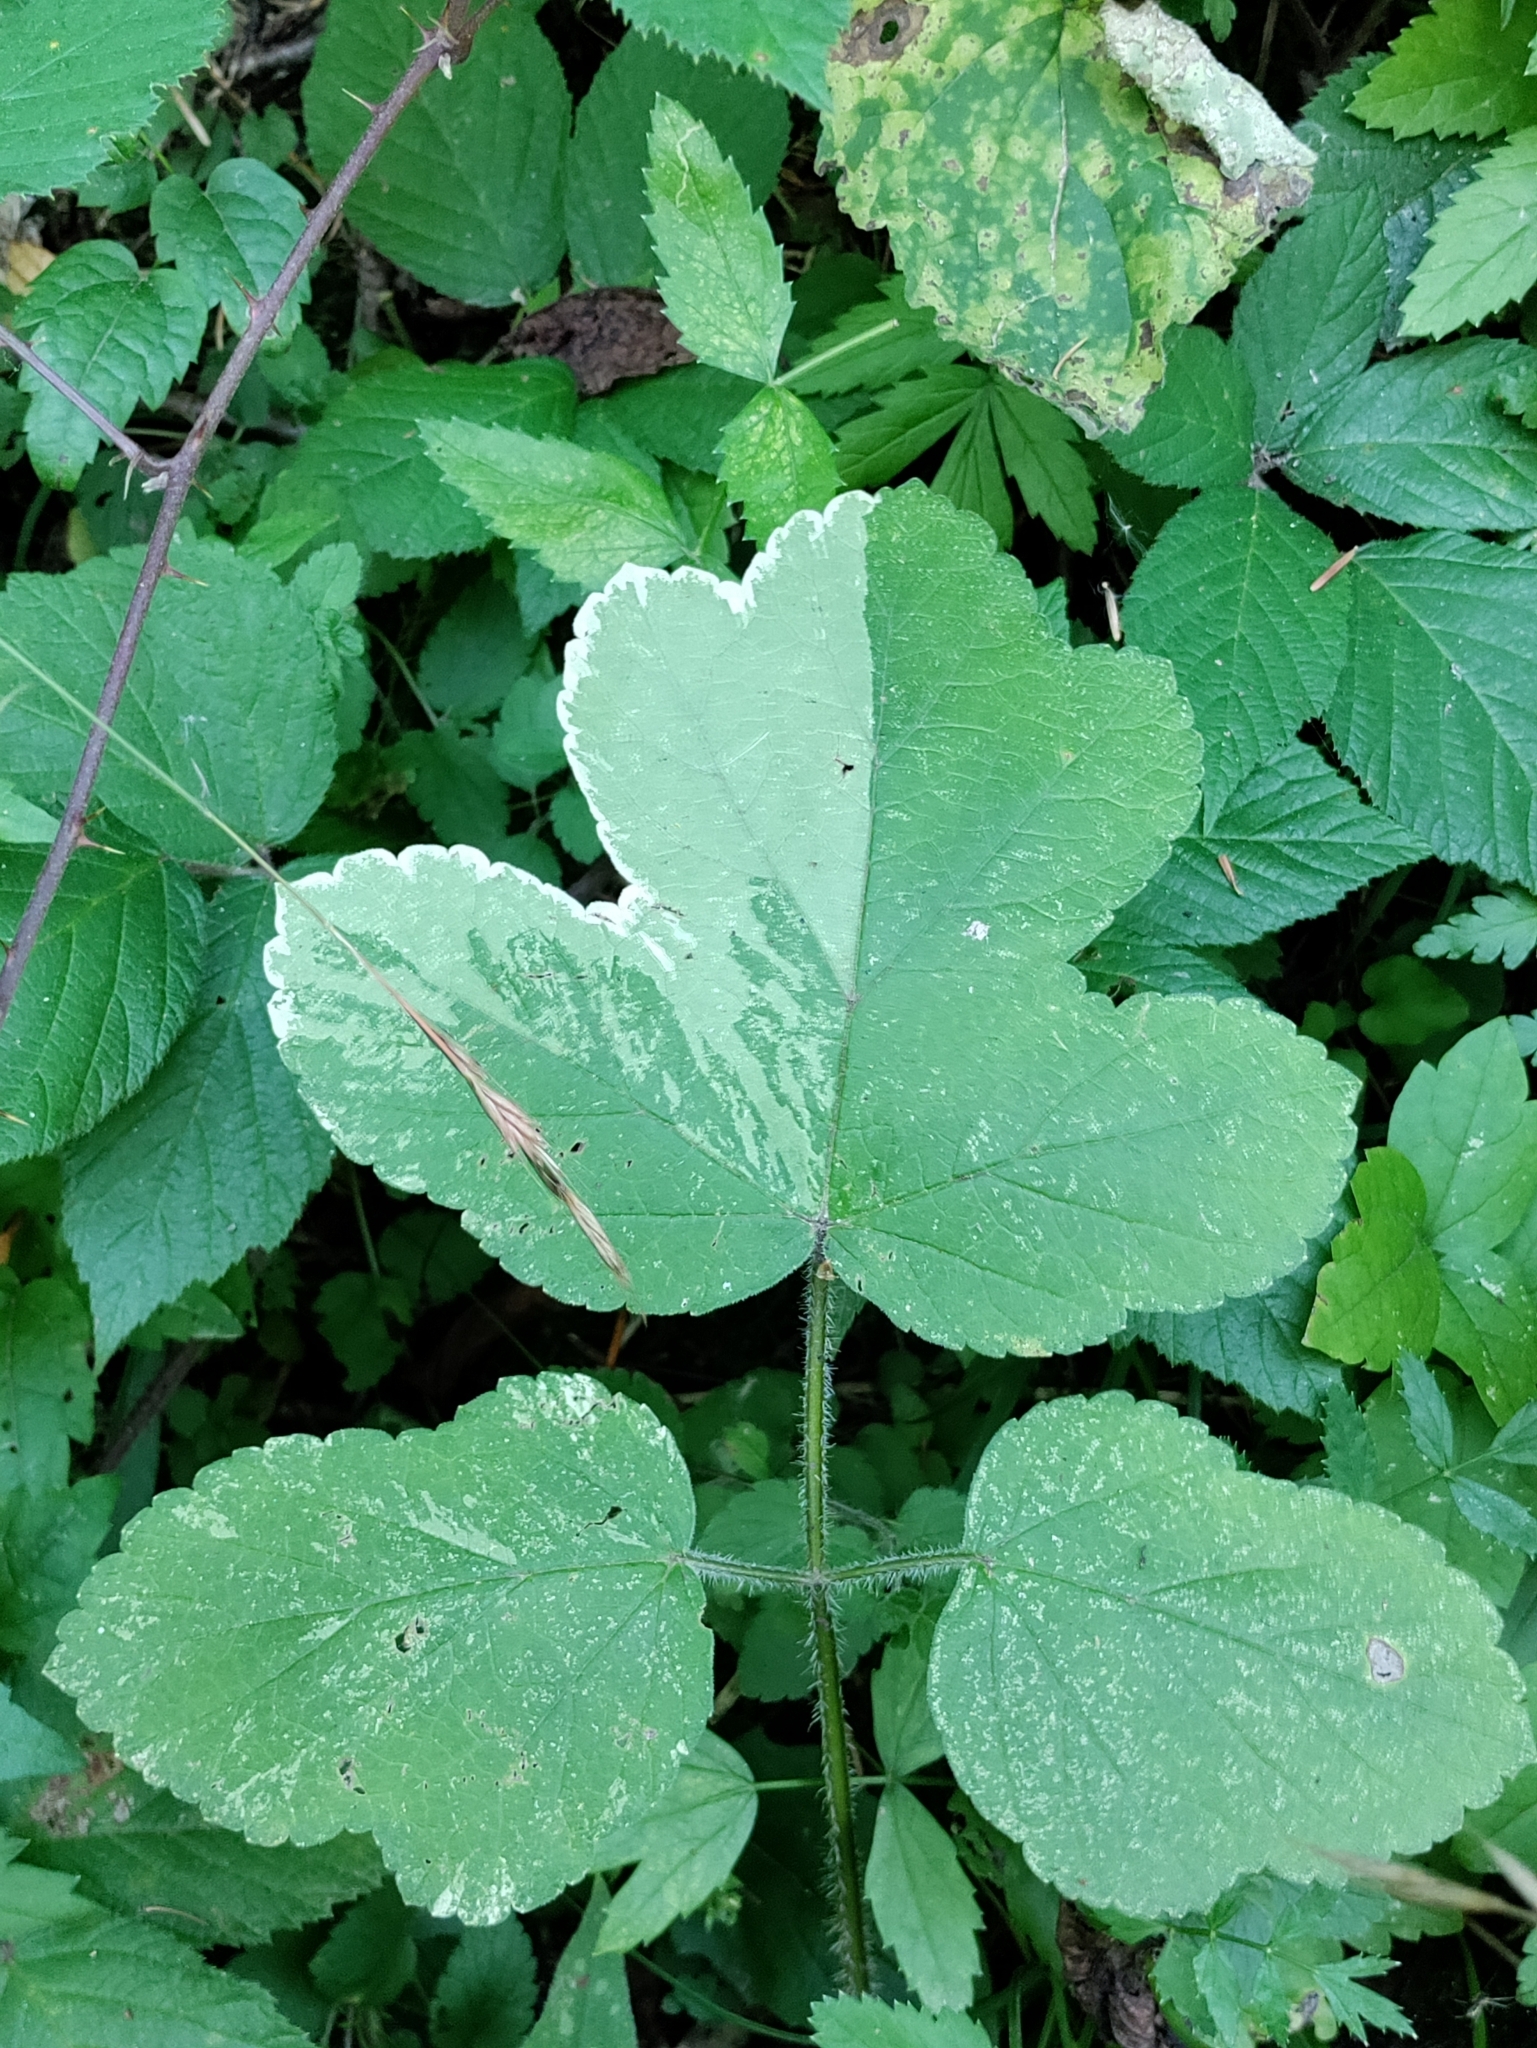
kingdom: Plantae
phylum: Tracheophyta
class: Magnoliopsida
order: Apiales
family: Apiaceae
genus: Heracleum
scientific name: Heracleum sphondylium
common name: Hogweed
